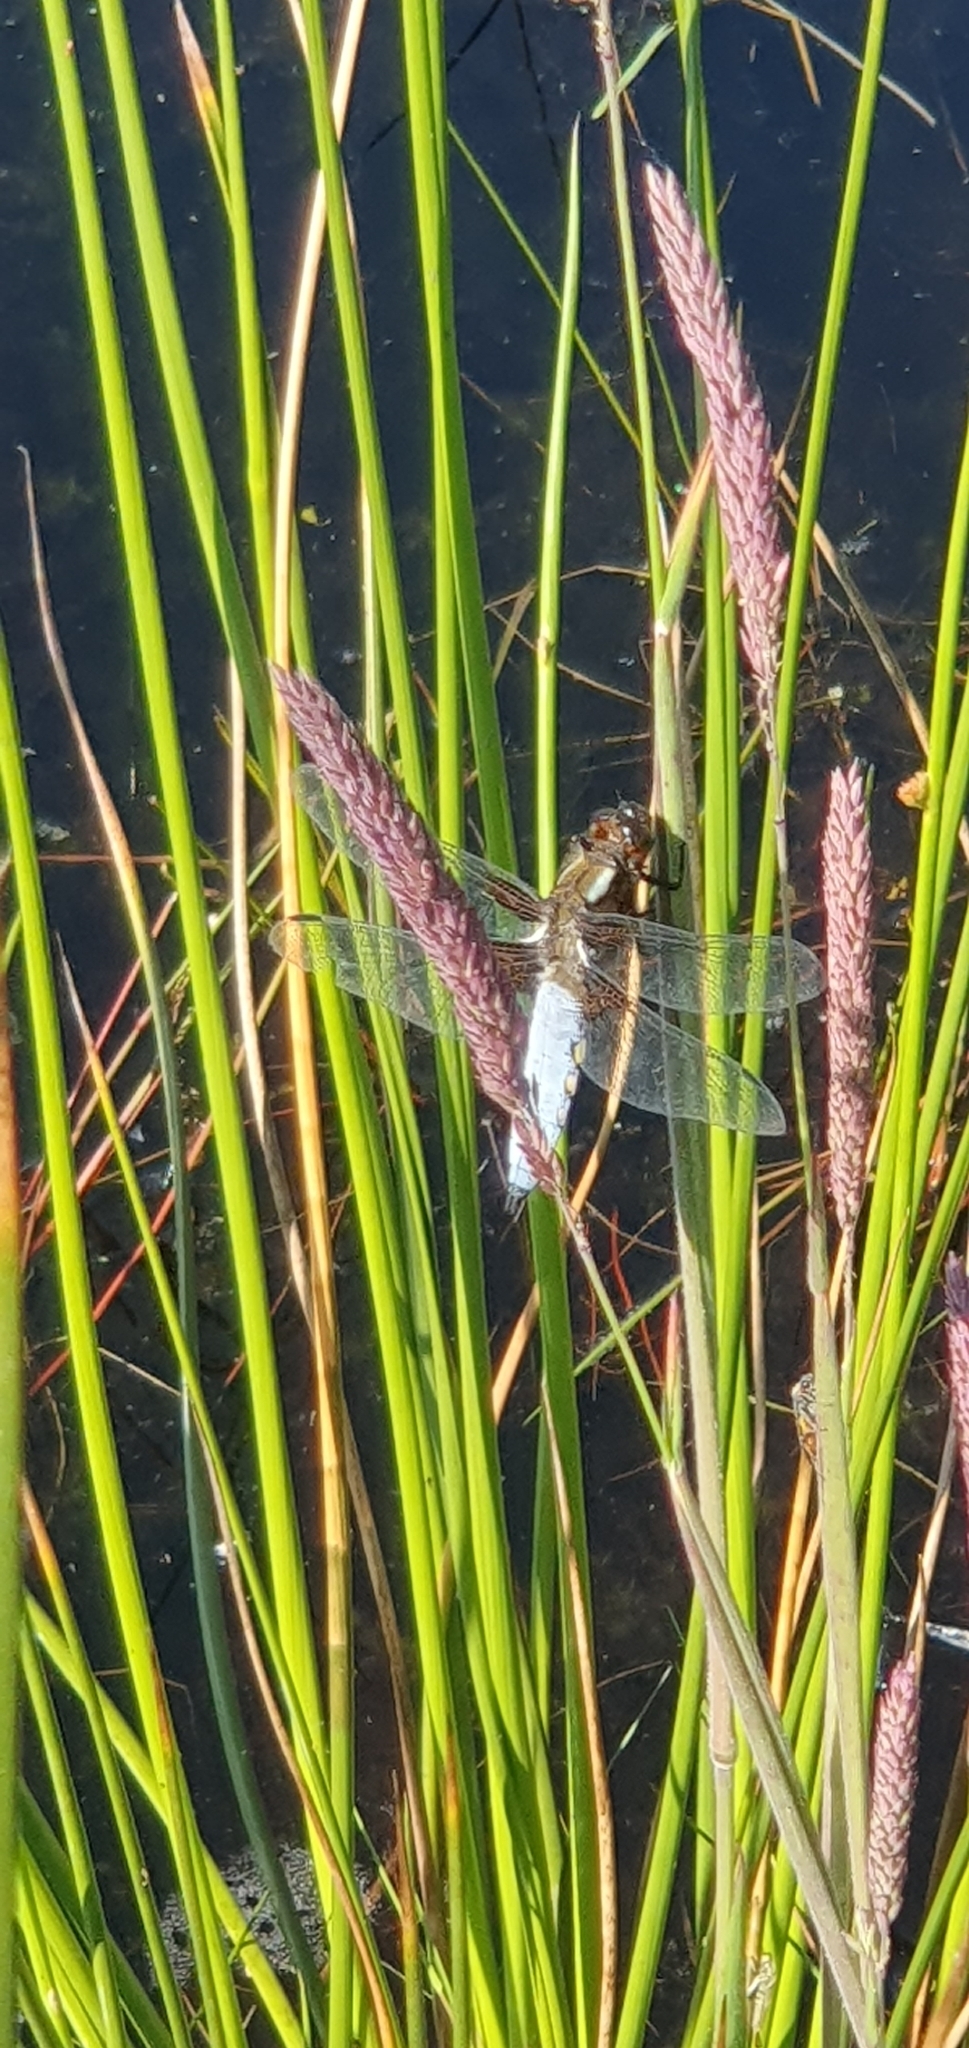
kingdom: Animalia
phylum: Arthropoda
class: Insecta
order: Odonata
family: Libellulidae
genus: Libellula
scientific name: Libellula depressa
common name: Broad-bodied chaser
